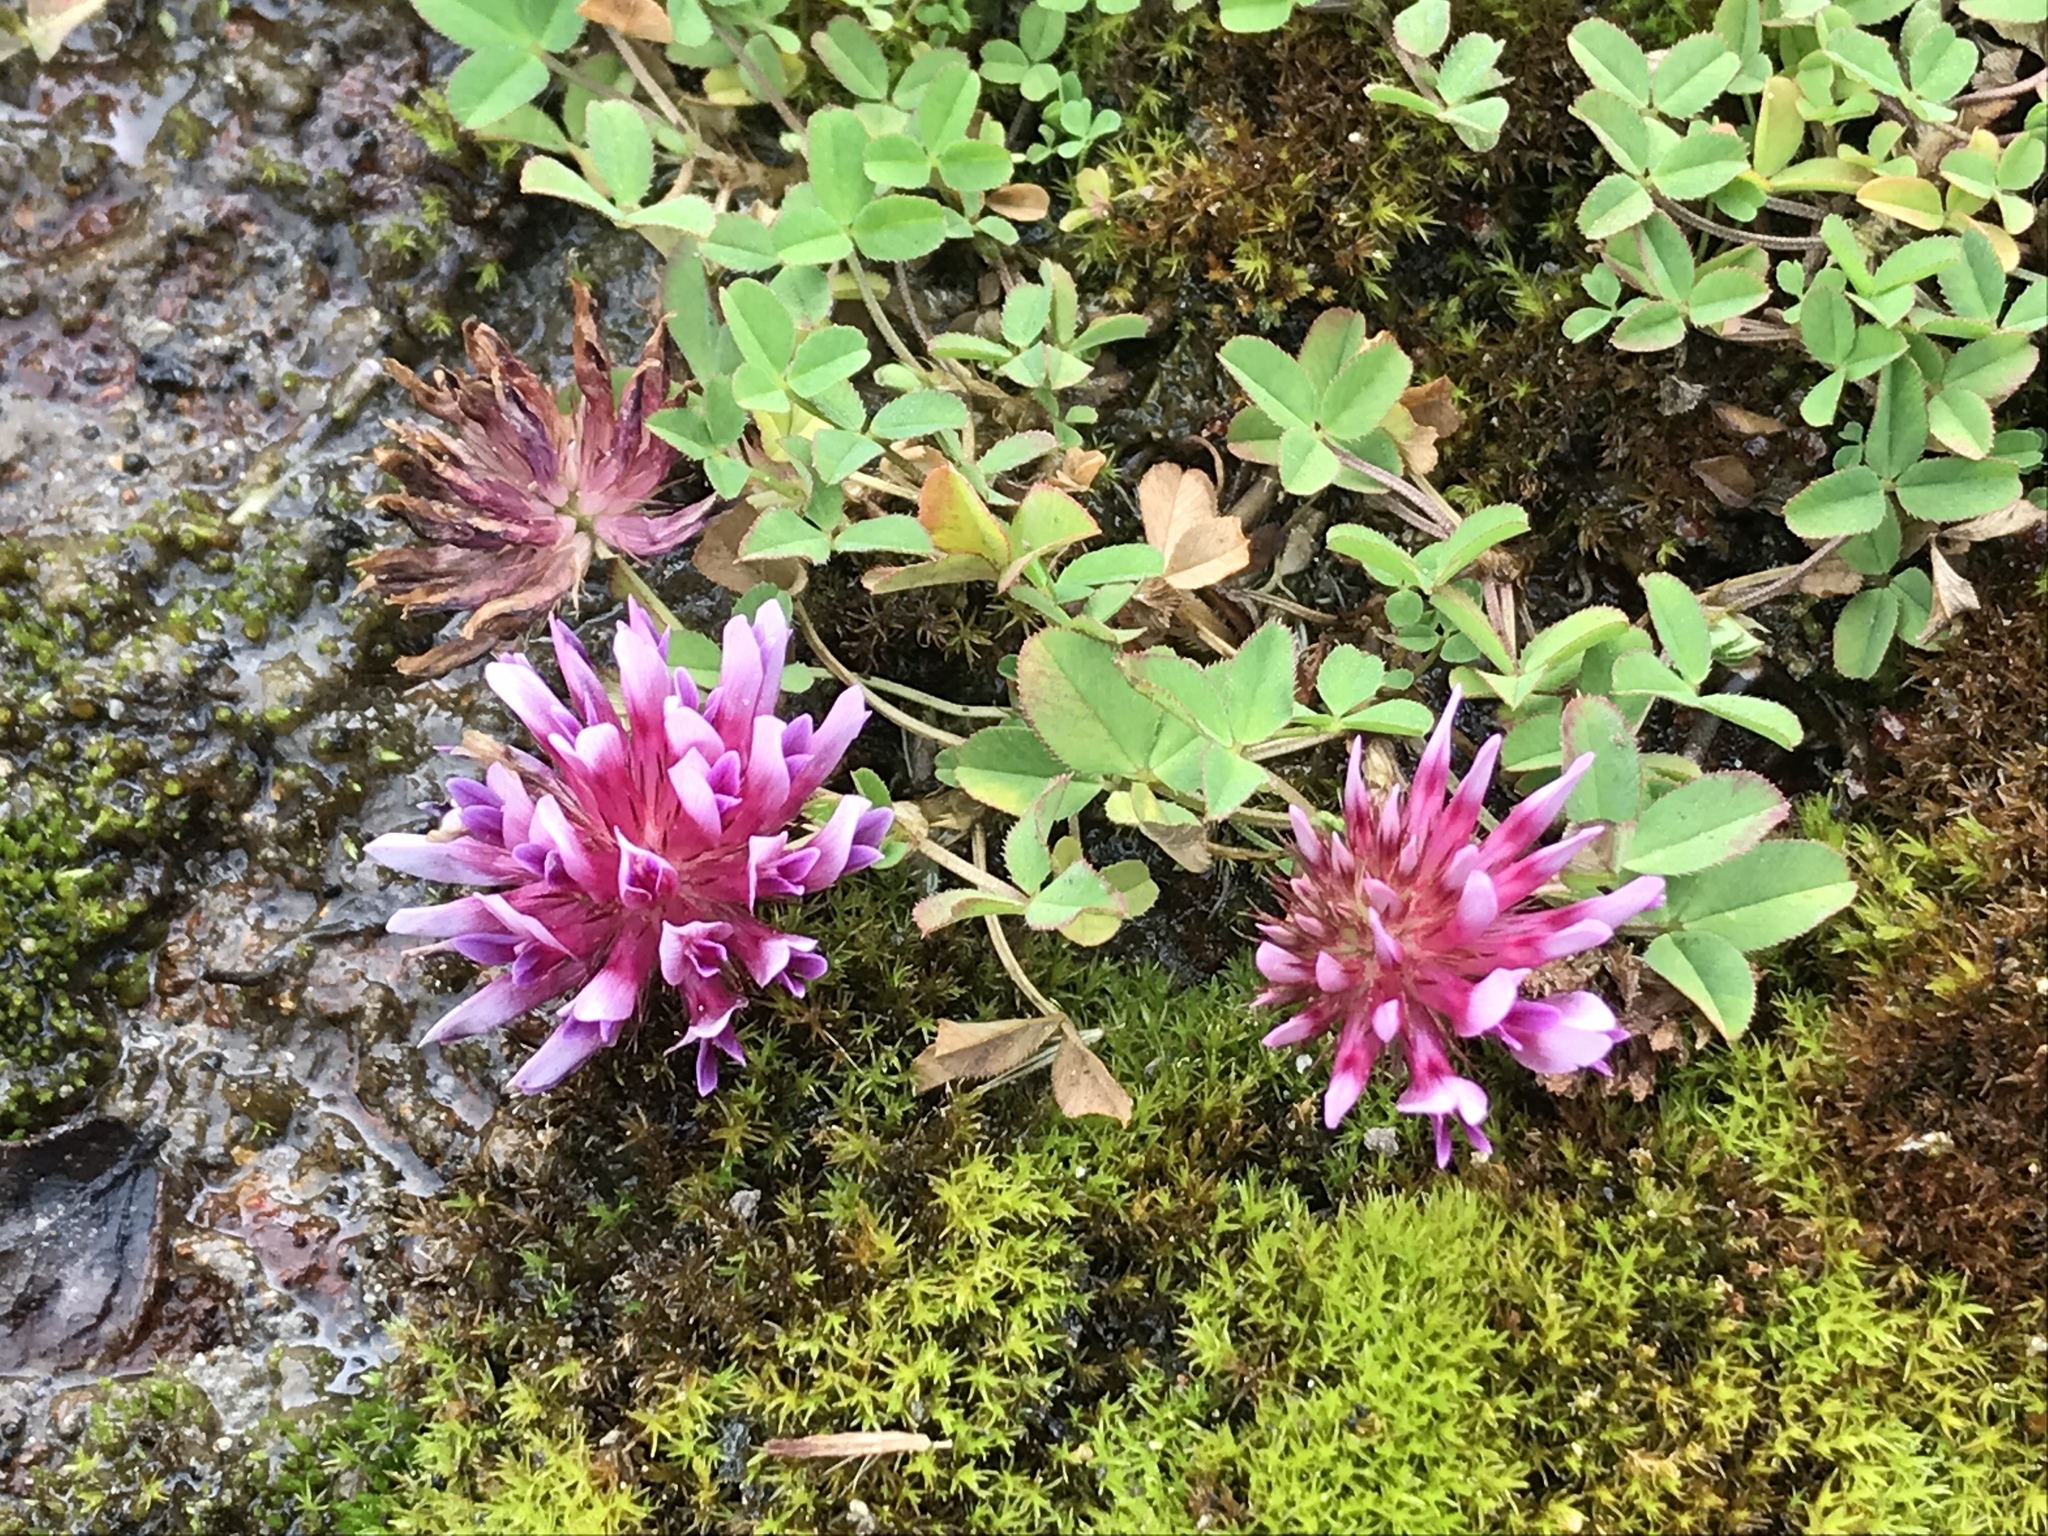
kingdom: Plantae
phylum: Tracheophyta
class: Magnoliopsida
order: Fabales
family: Fabaceae
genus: Trifolium
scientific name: Trifolium wormskioldii
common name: Springbank clover
